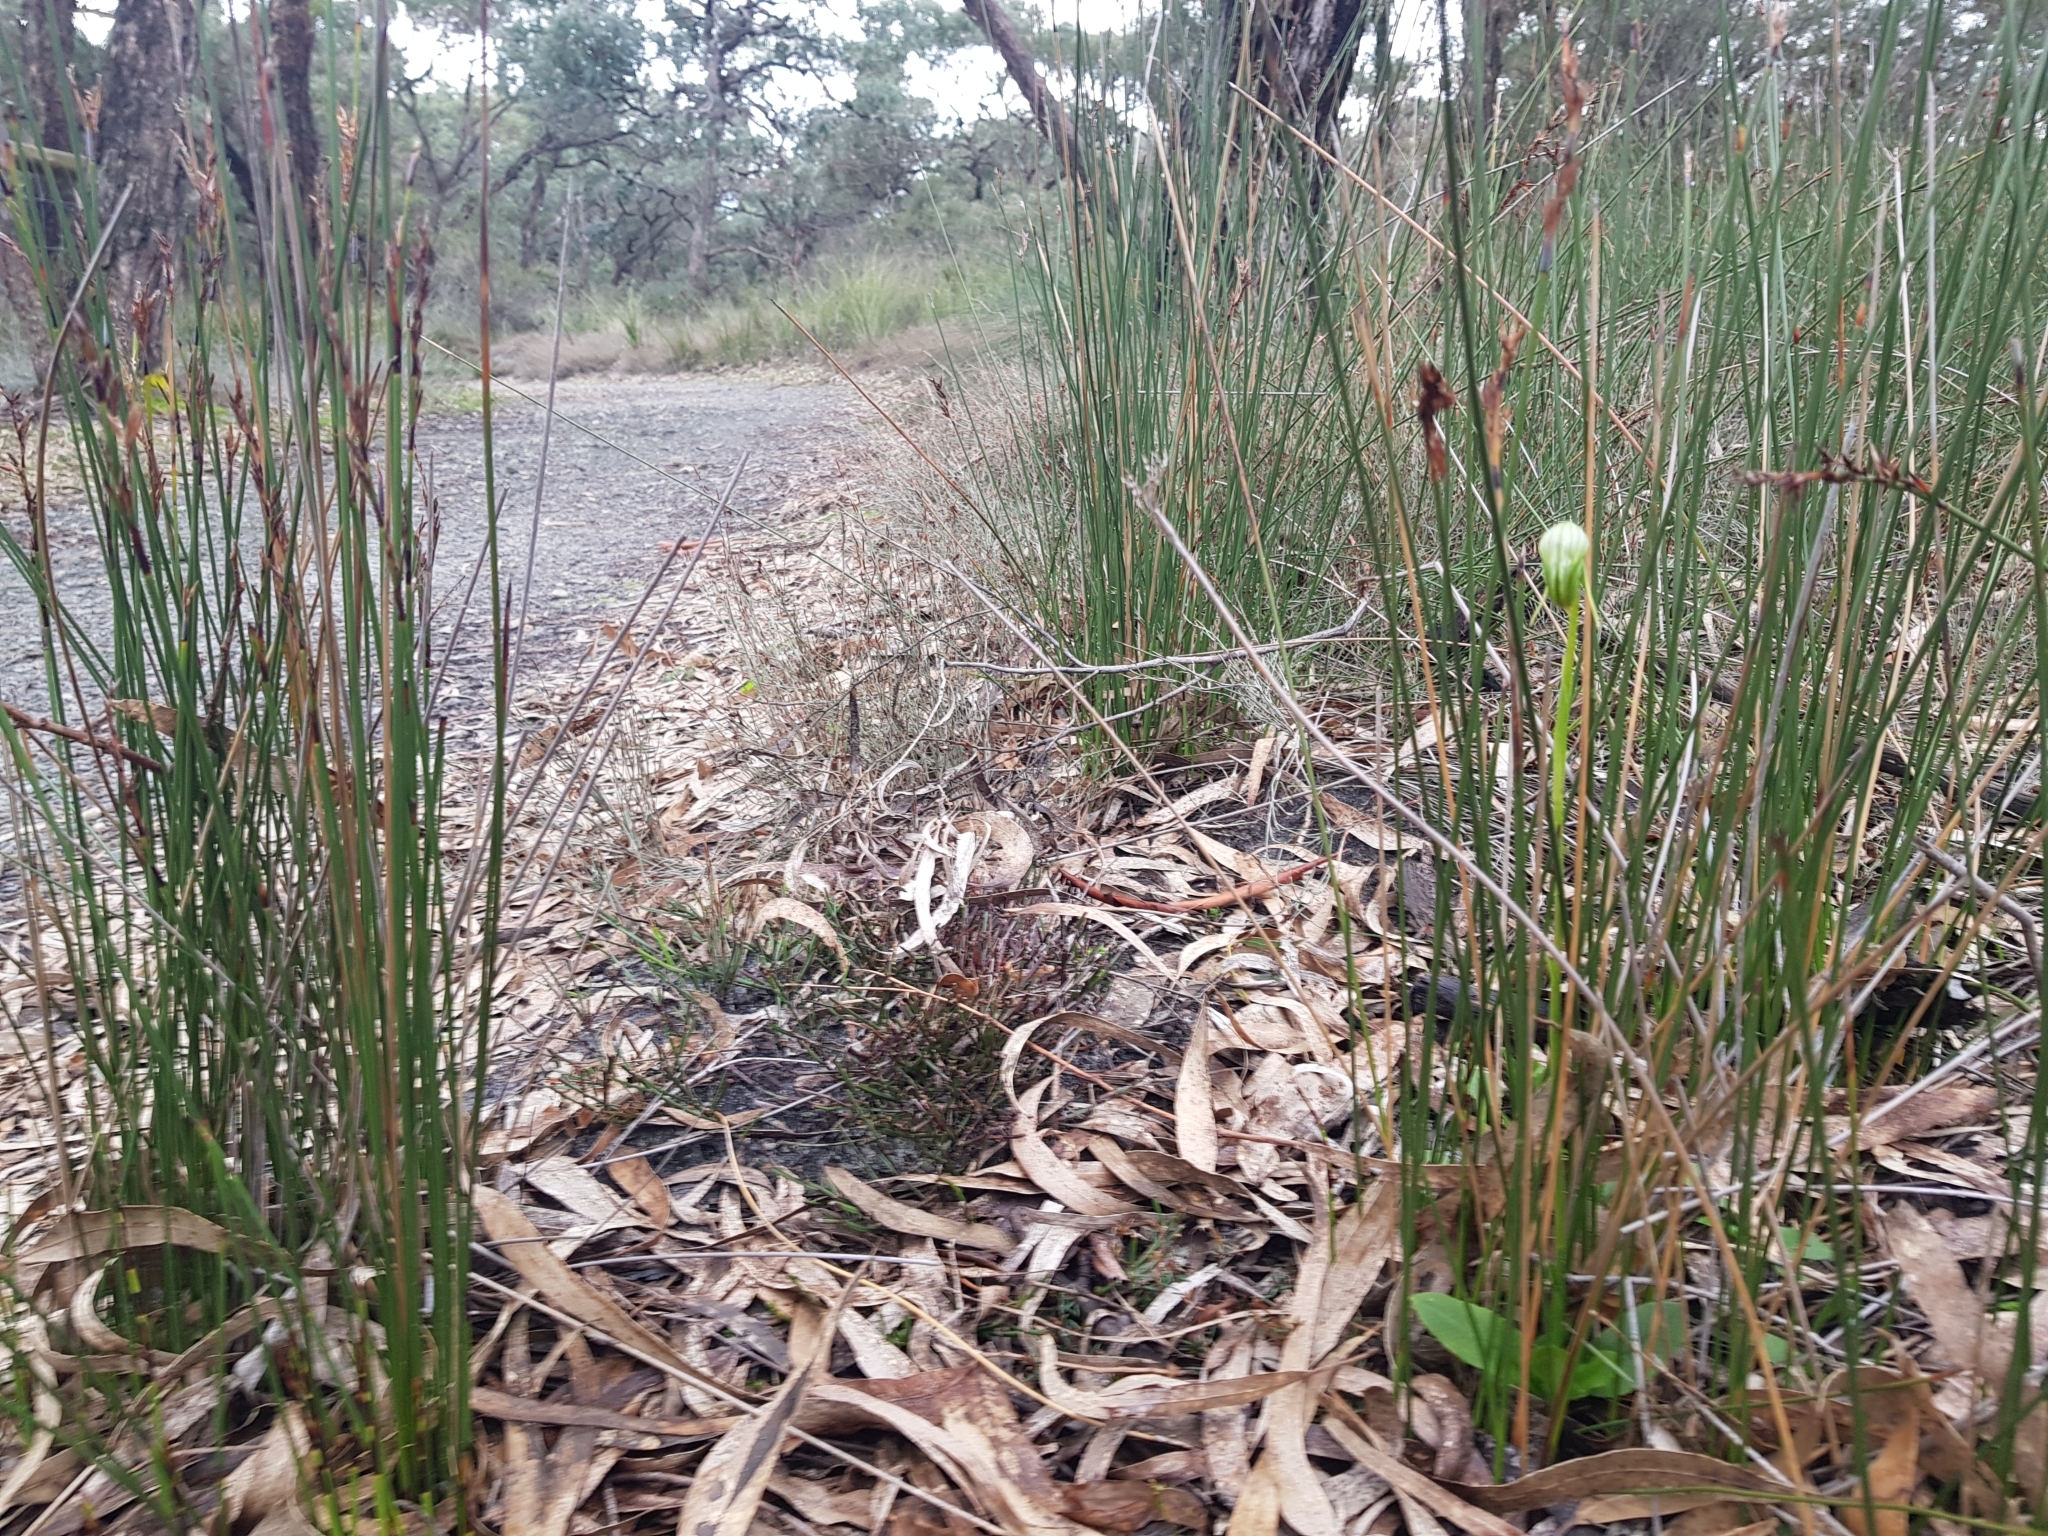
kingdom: Plantae
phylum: Tracheophyta
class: Liliopsida
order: Asparagales
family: Orchidaceae
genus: Pterostylis
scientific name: Pterostylis nutans
